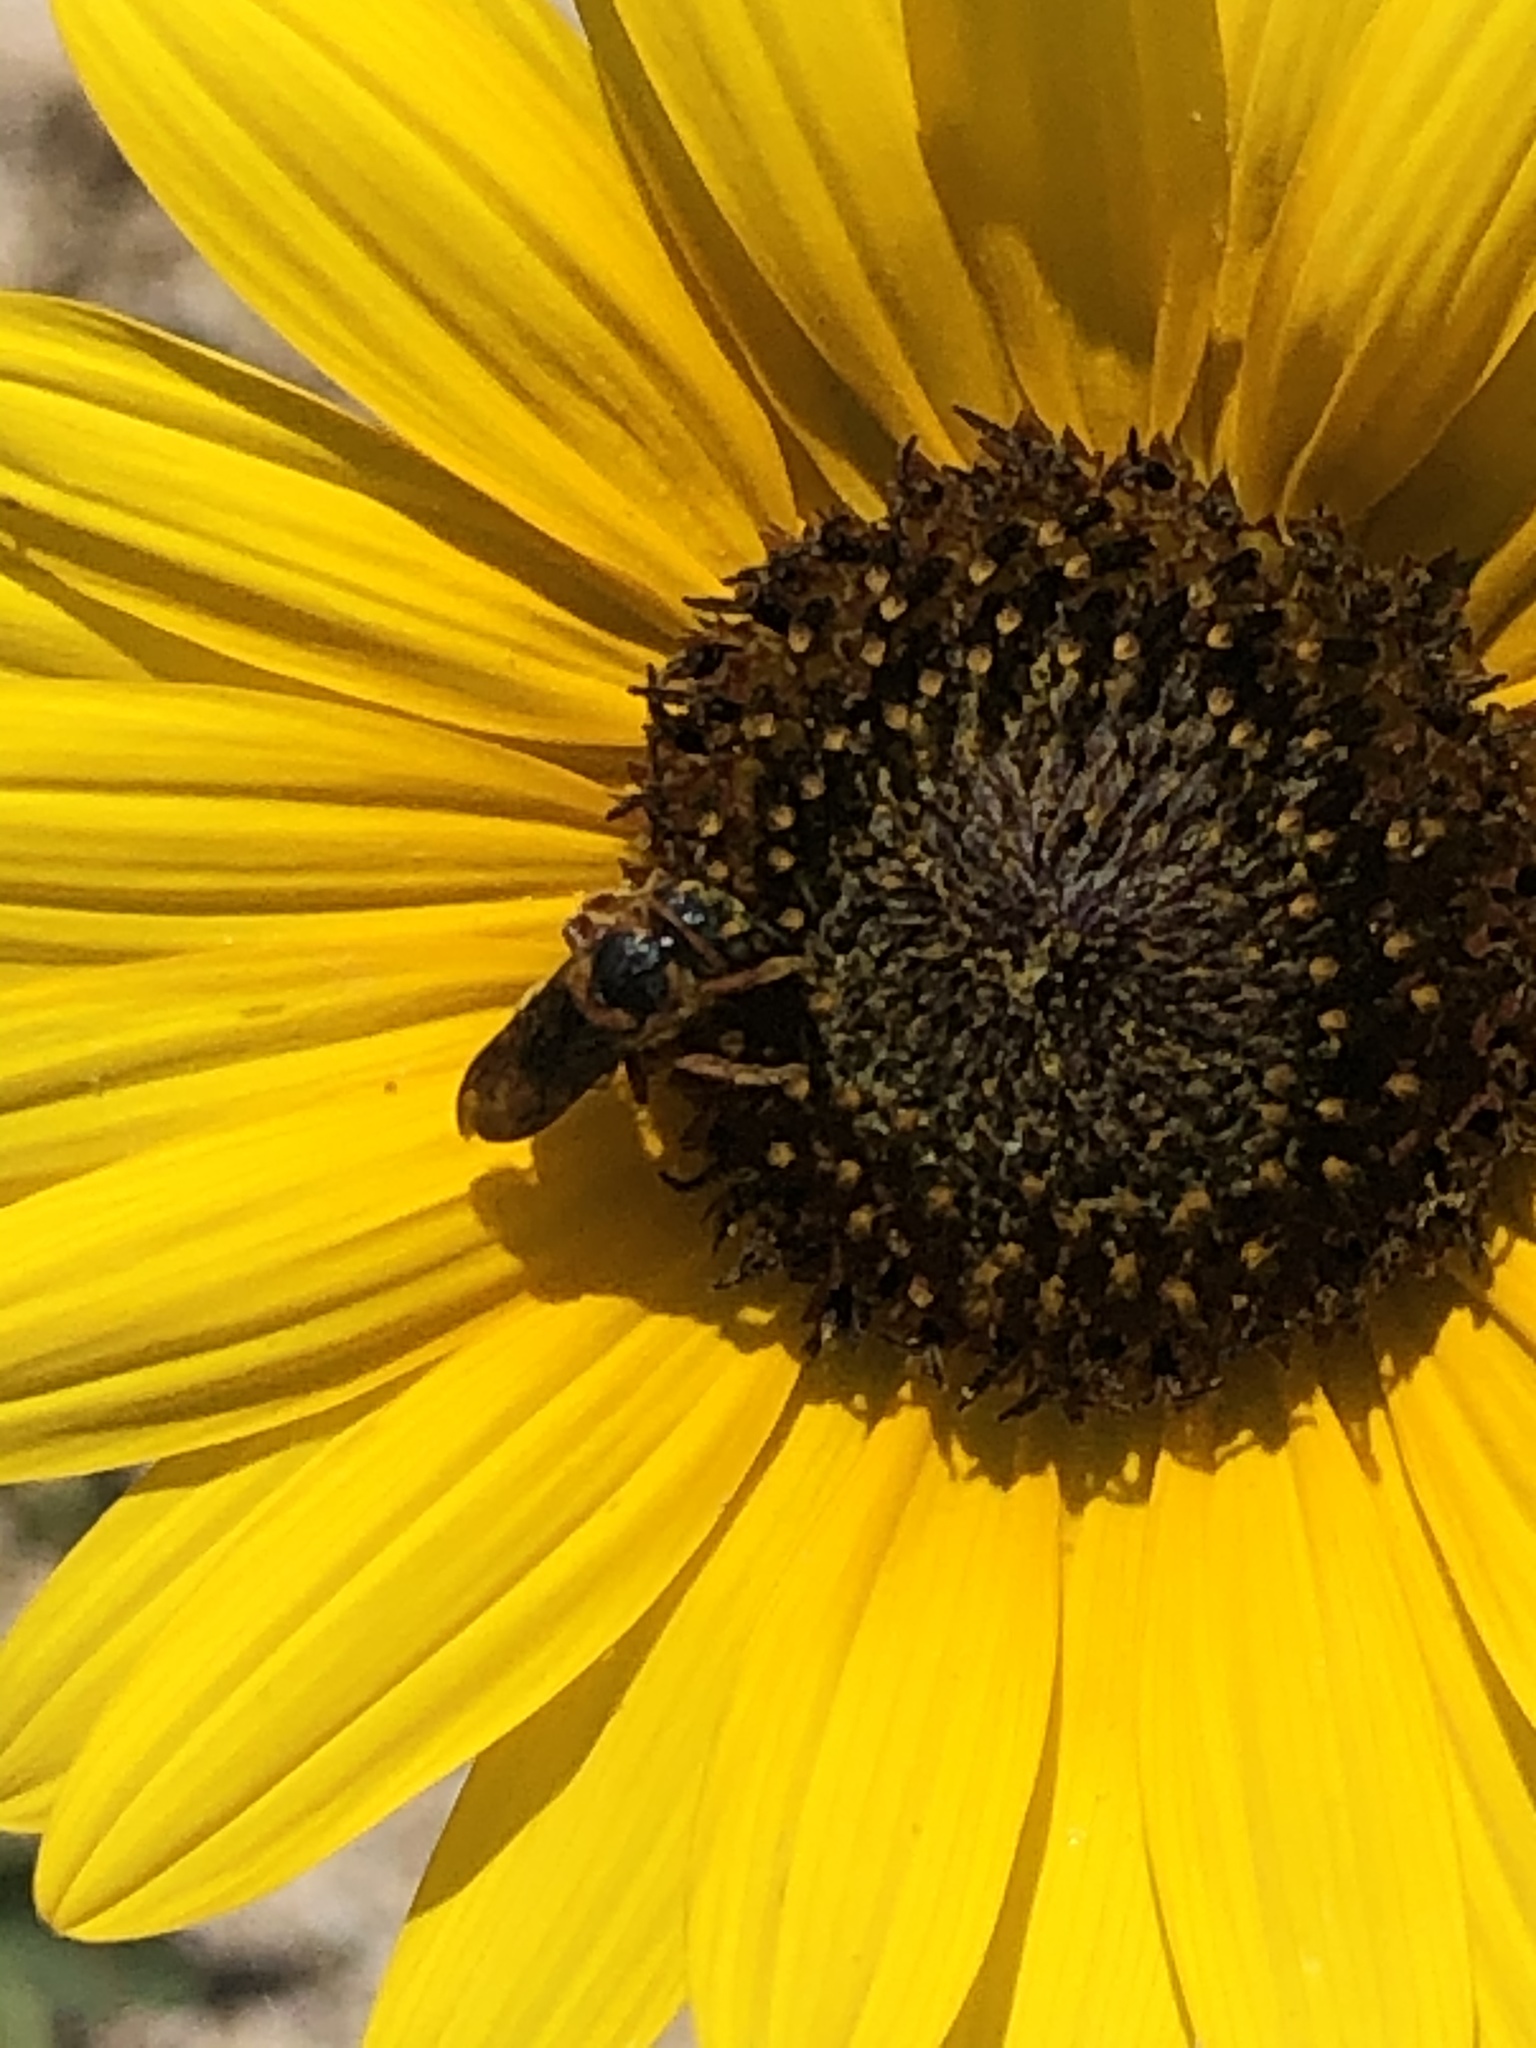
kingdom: Animalia
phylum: Arthropoda
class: Insecta
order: Hymenoptera
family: Megachilidae
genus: Dianthidium
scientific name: Dianthidium curvatum
